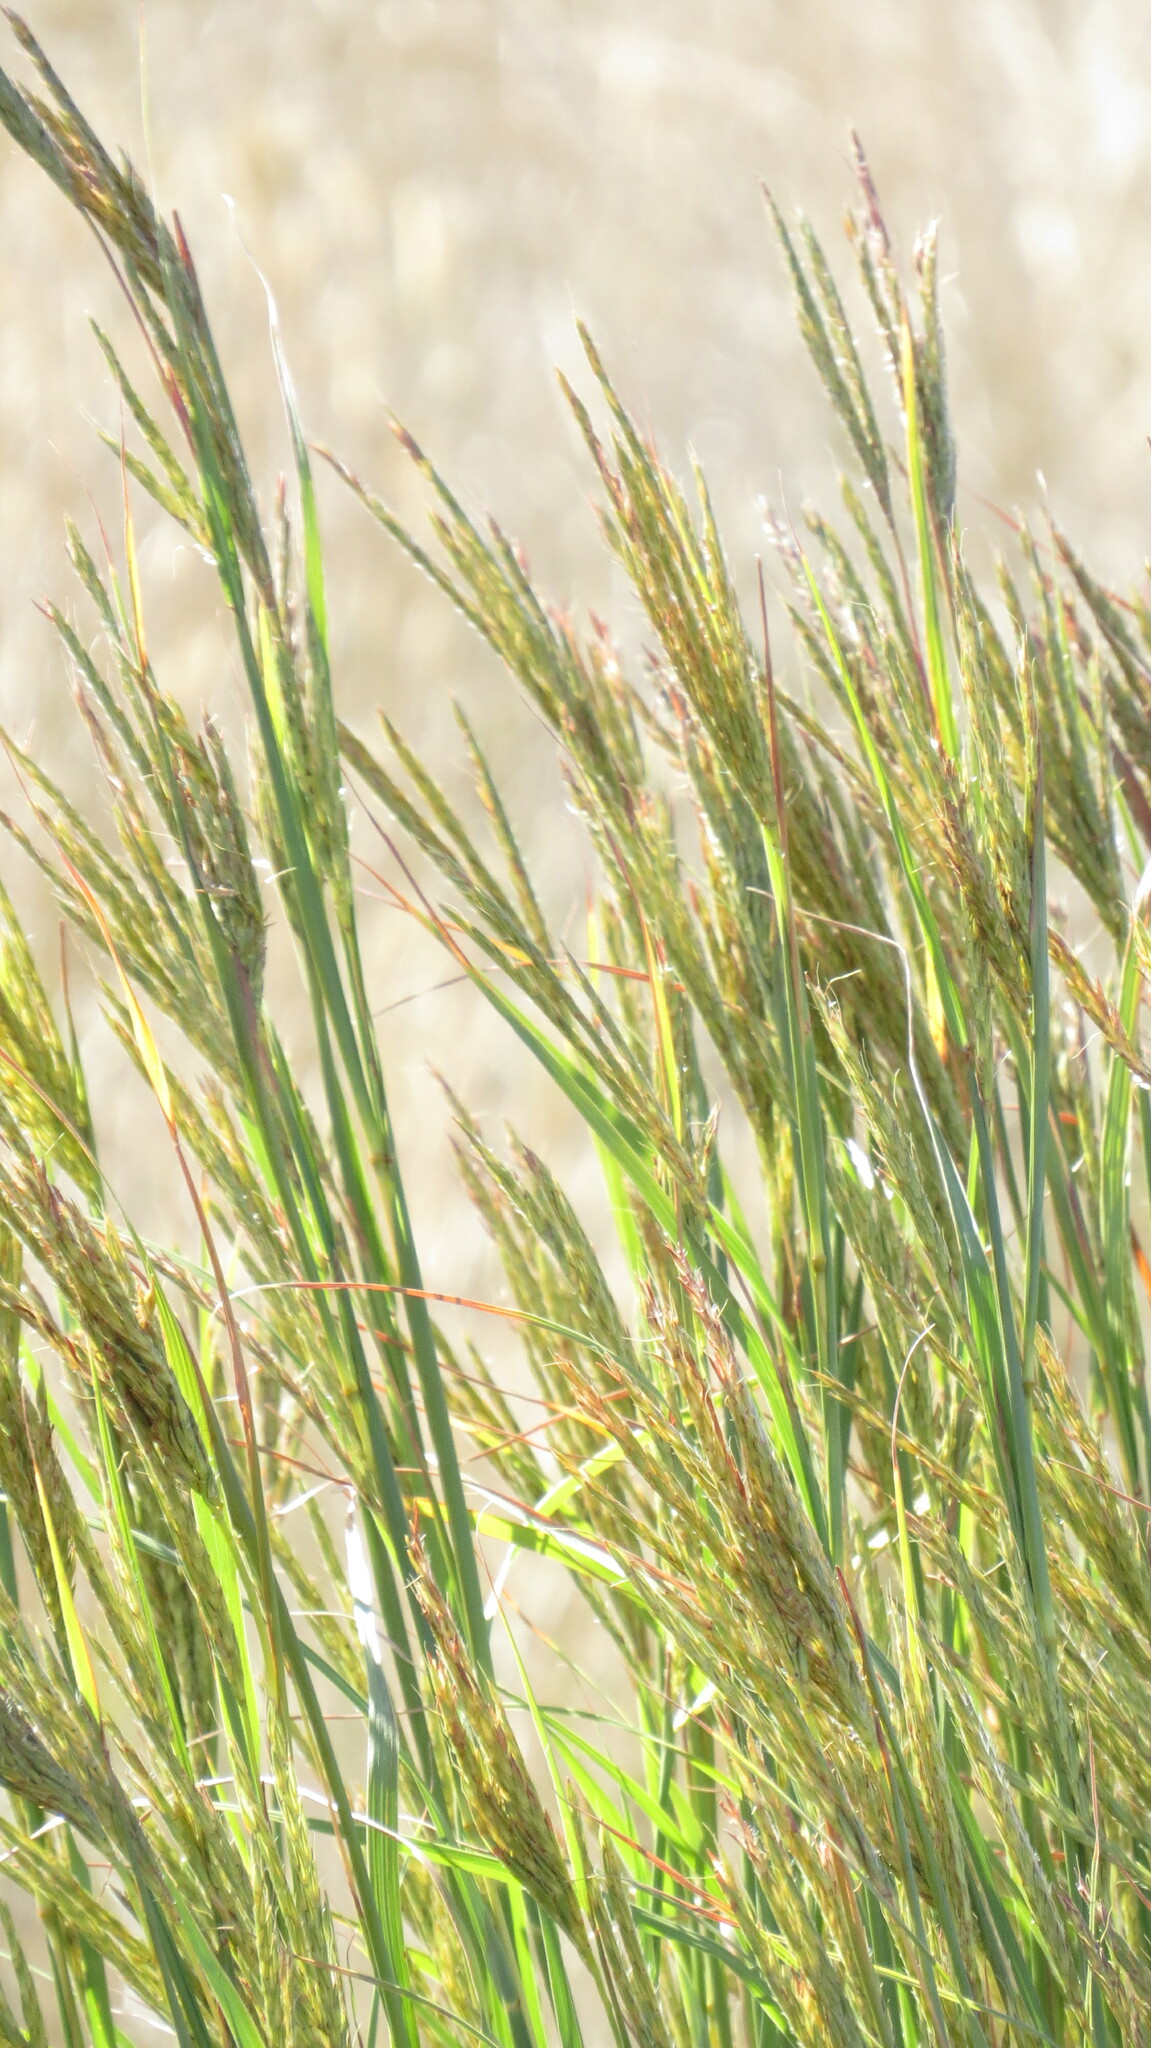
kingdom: Plantae
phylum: Tracheophyta
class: Liliopsida
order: Poales
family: Poaceae
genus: Andropogon
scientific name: Andropogon gerardi
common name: Big bluestem
